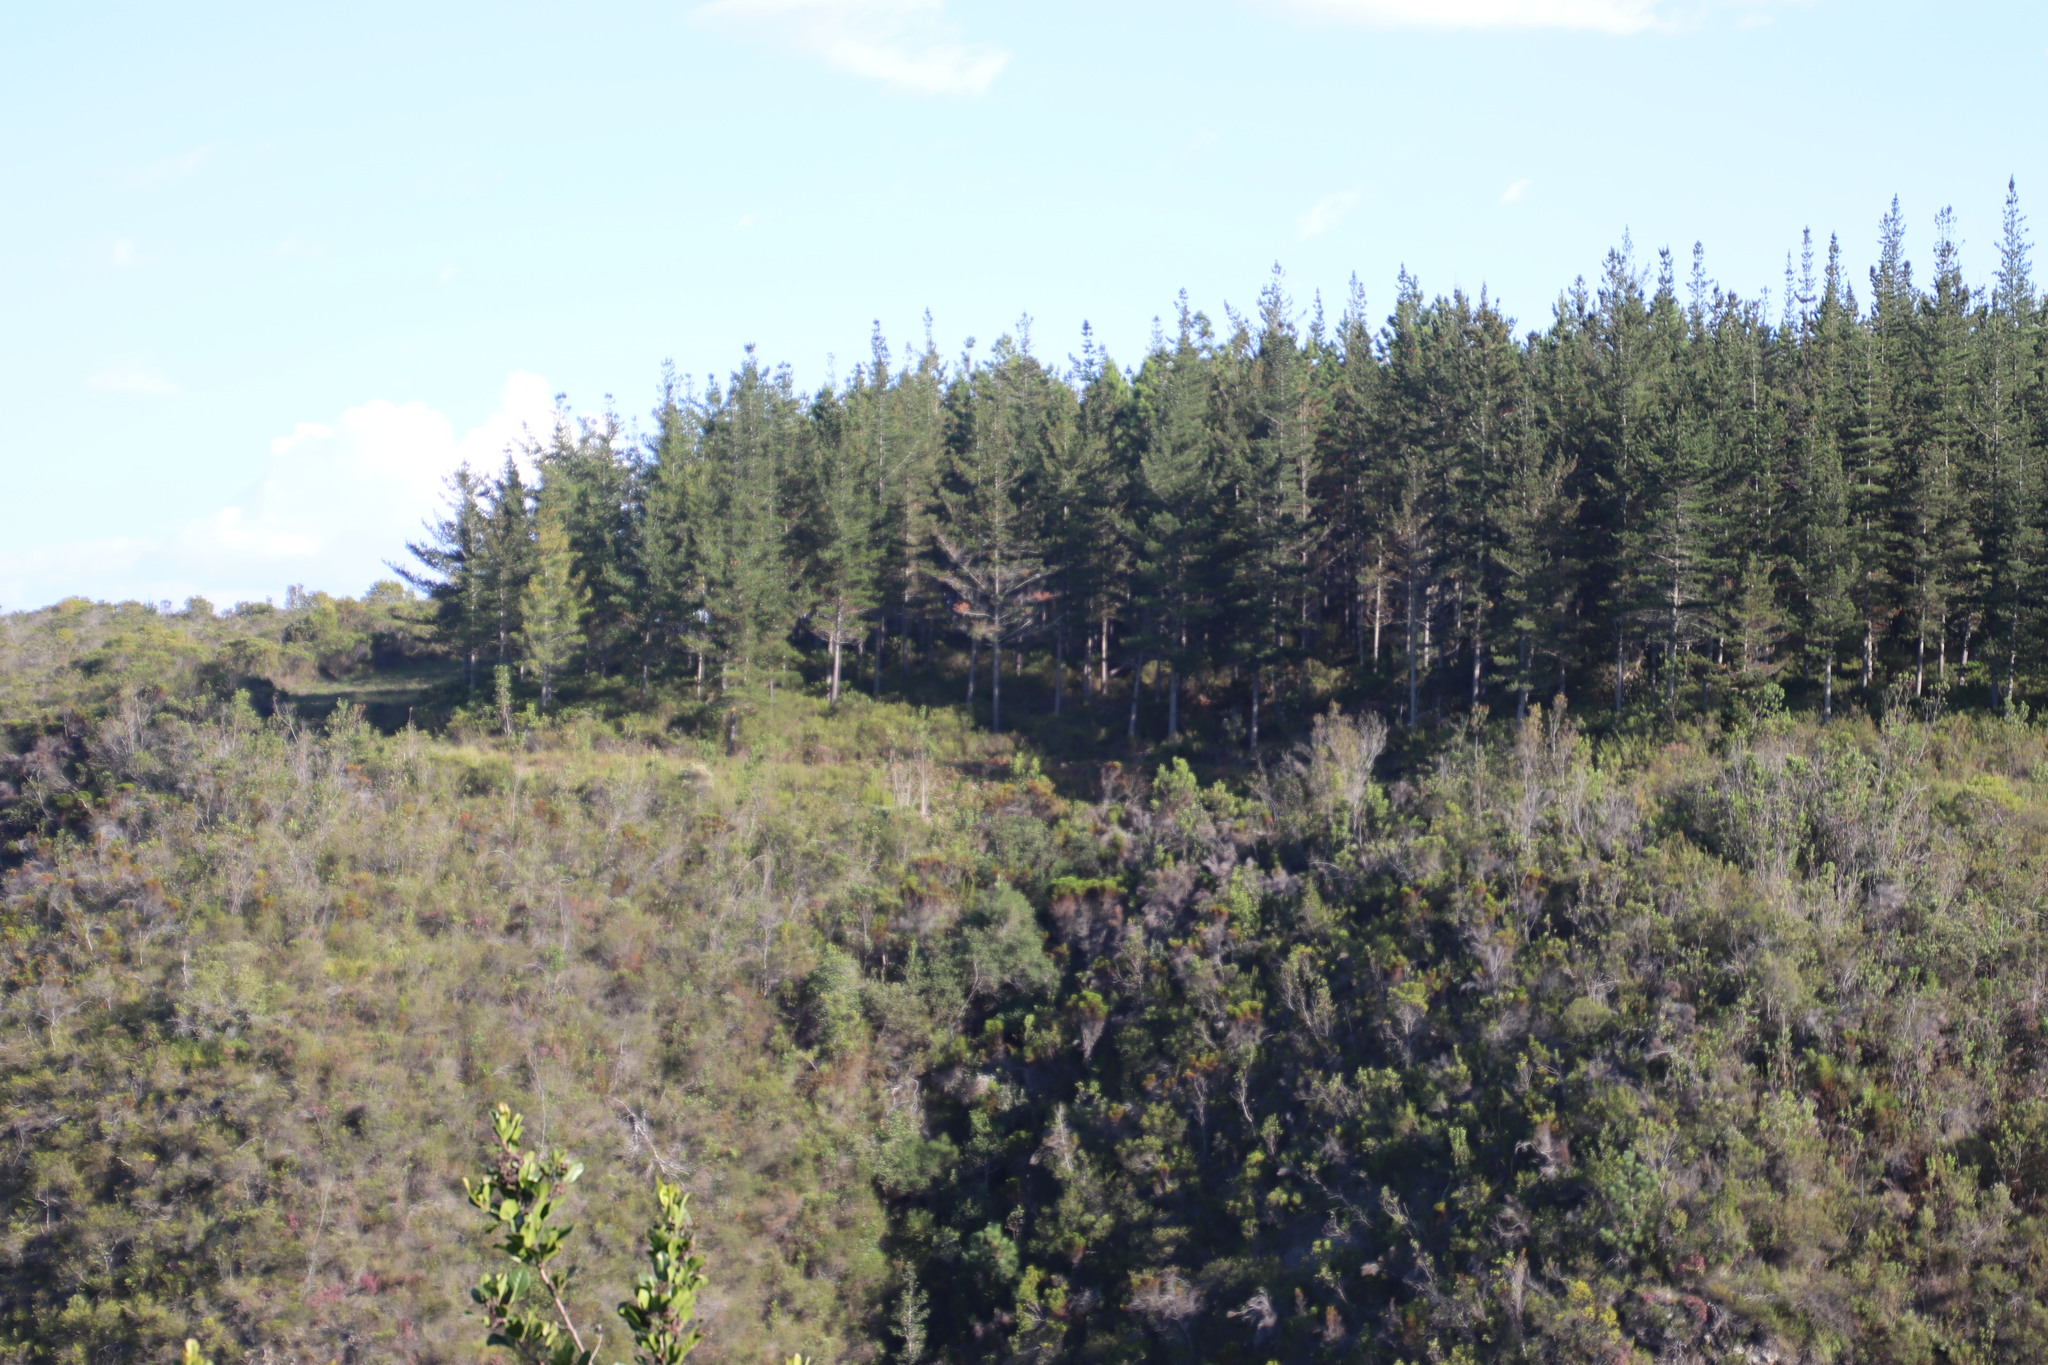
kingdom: Plantae
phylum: Tracheophyta
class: Pinopsida
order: Pinales
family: Pinaceae
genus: Pinus
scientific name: Pinus radiata
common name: Monterey pine
